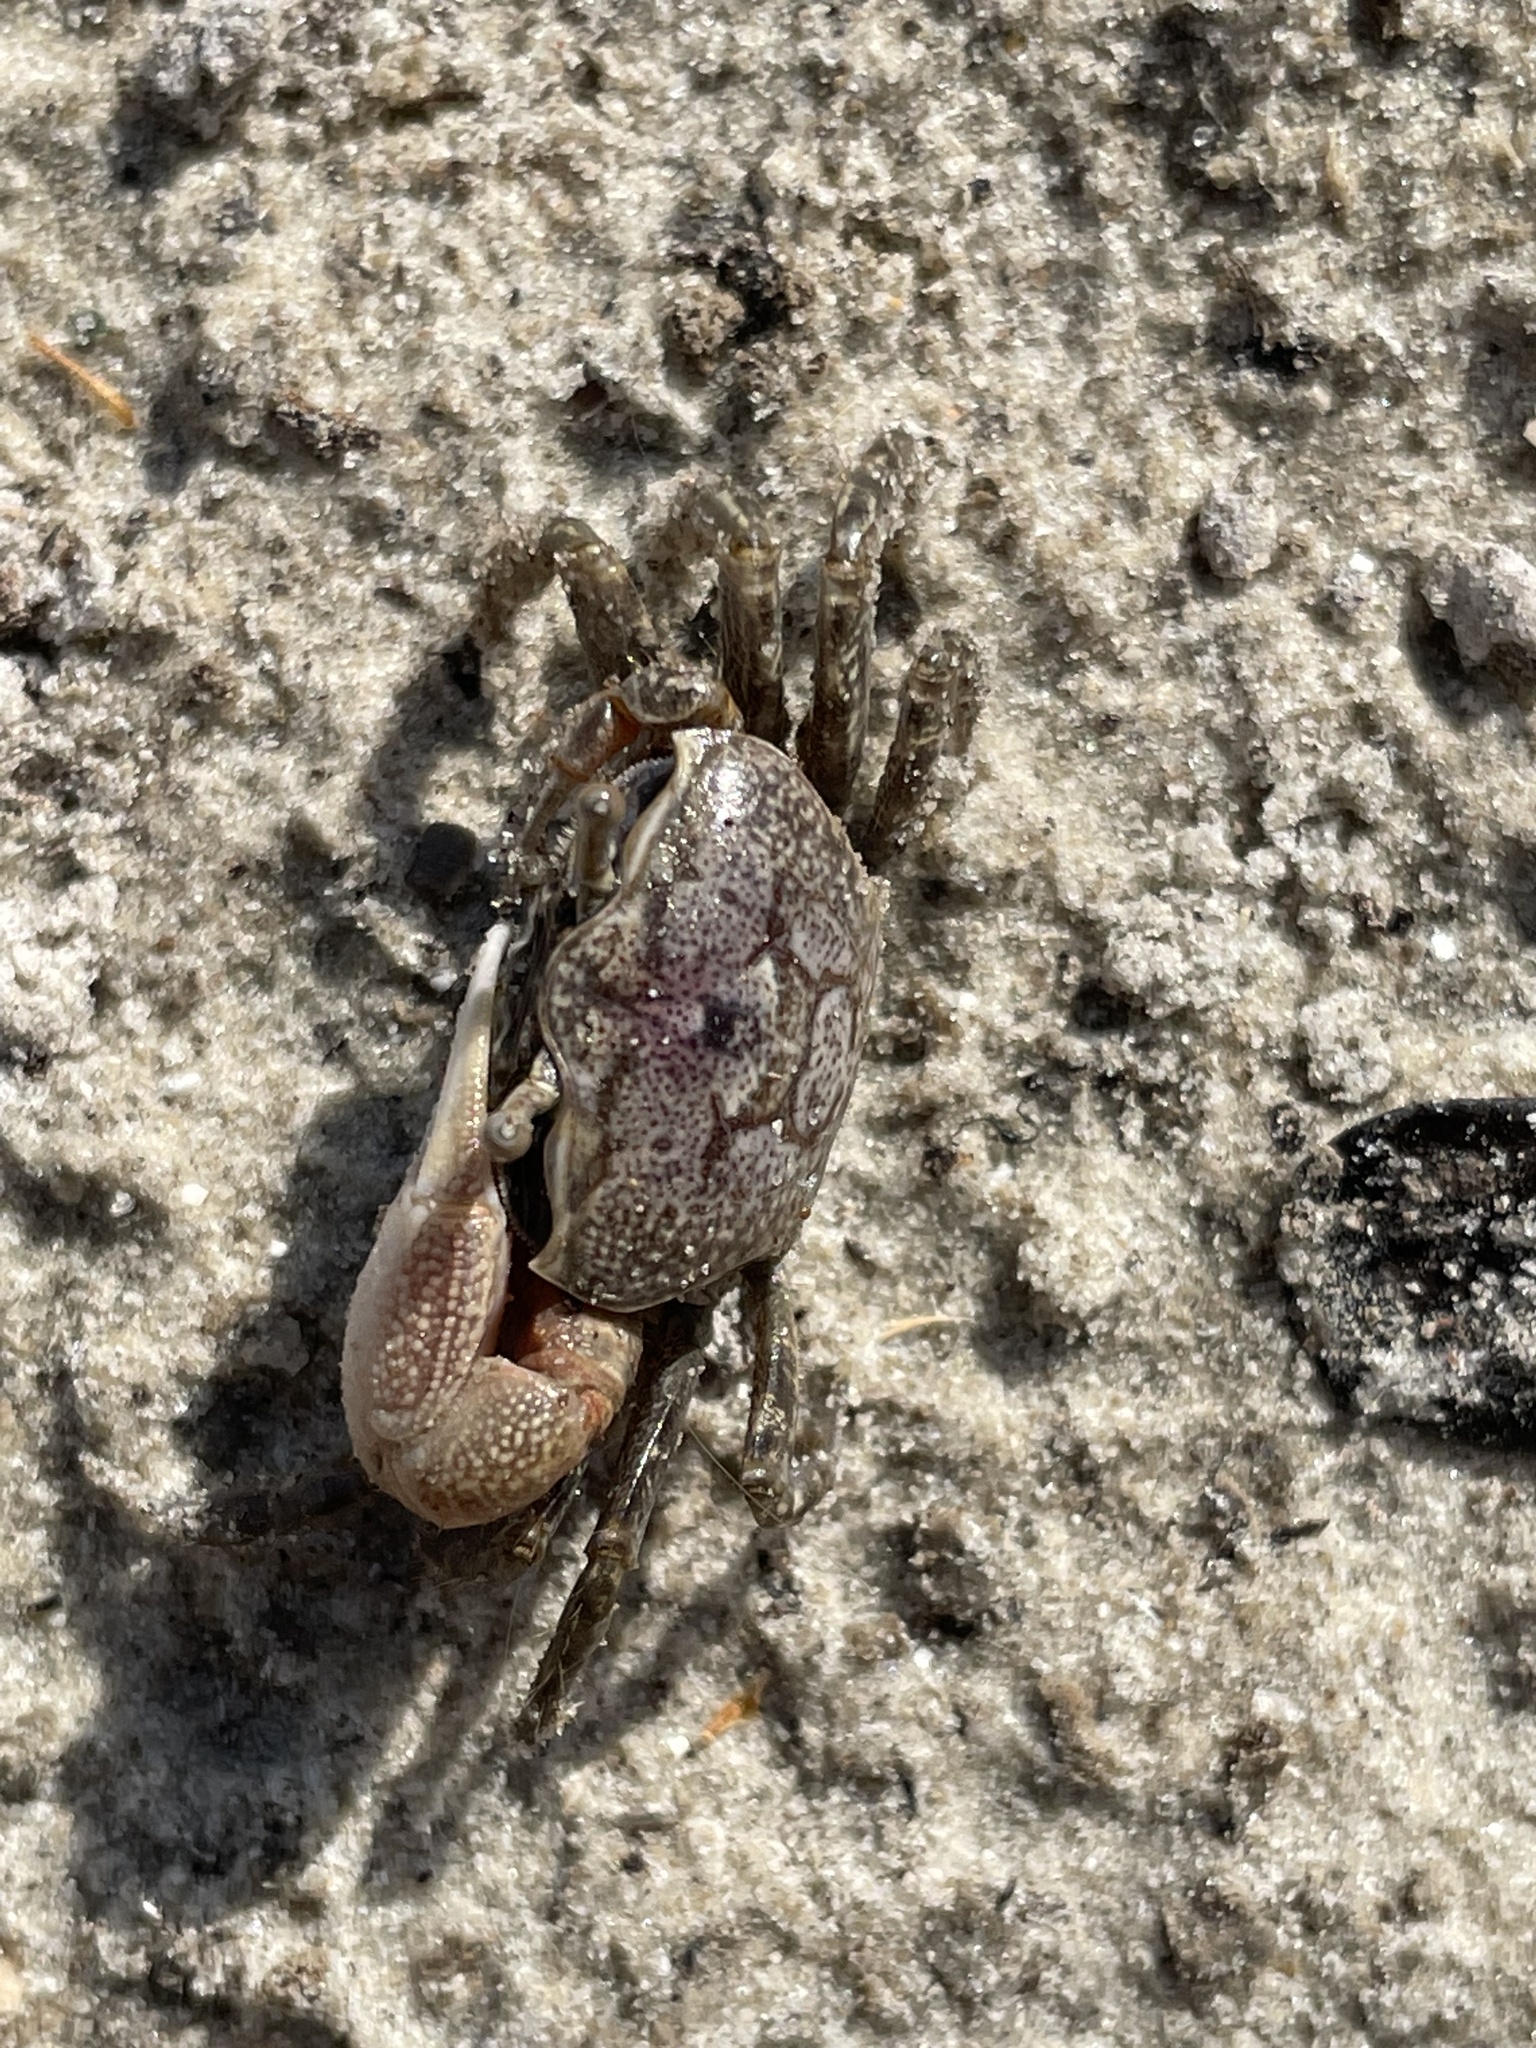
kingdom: Animalia
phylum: Arthropoda
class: Malacostraca
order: Decapoda
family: Ocypodidae
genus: Leptuca
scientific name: Leptuca pugilator
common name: Atlantic sand fiddler crab
